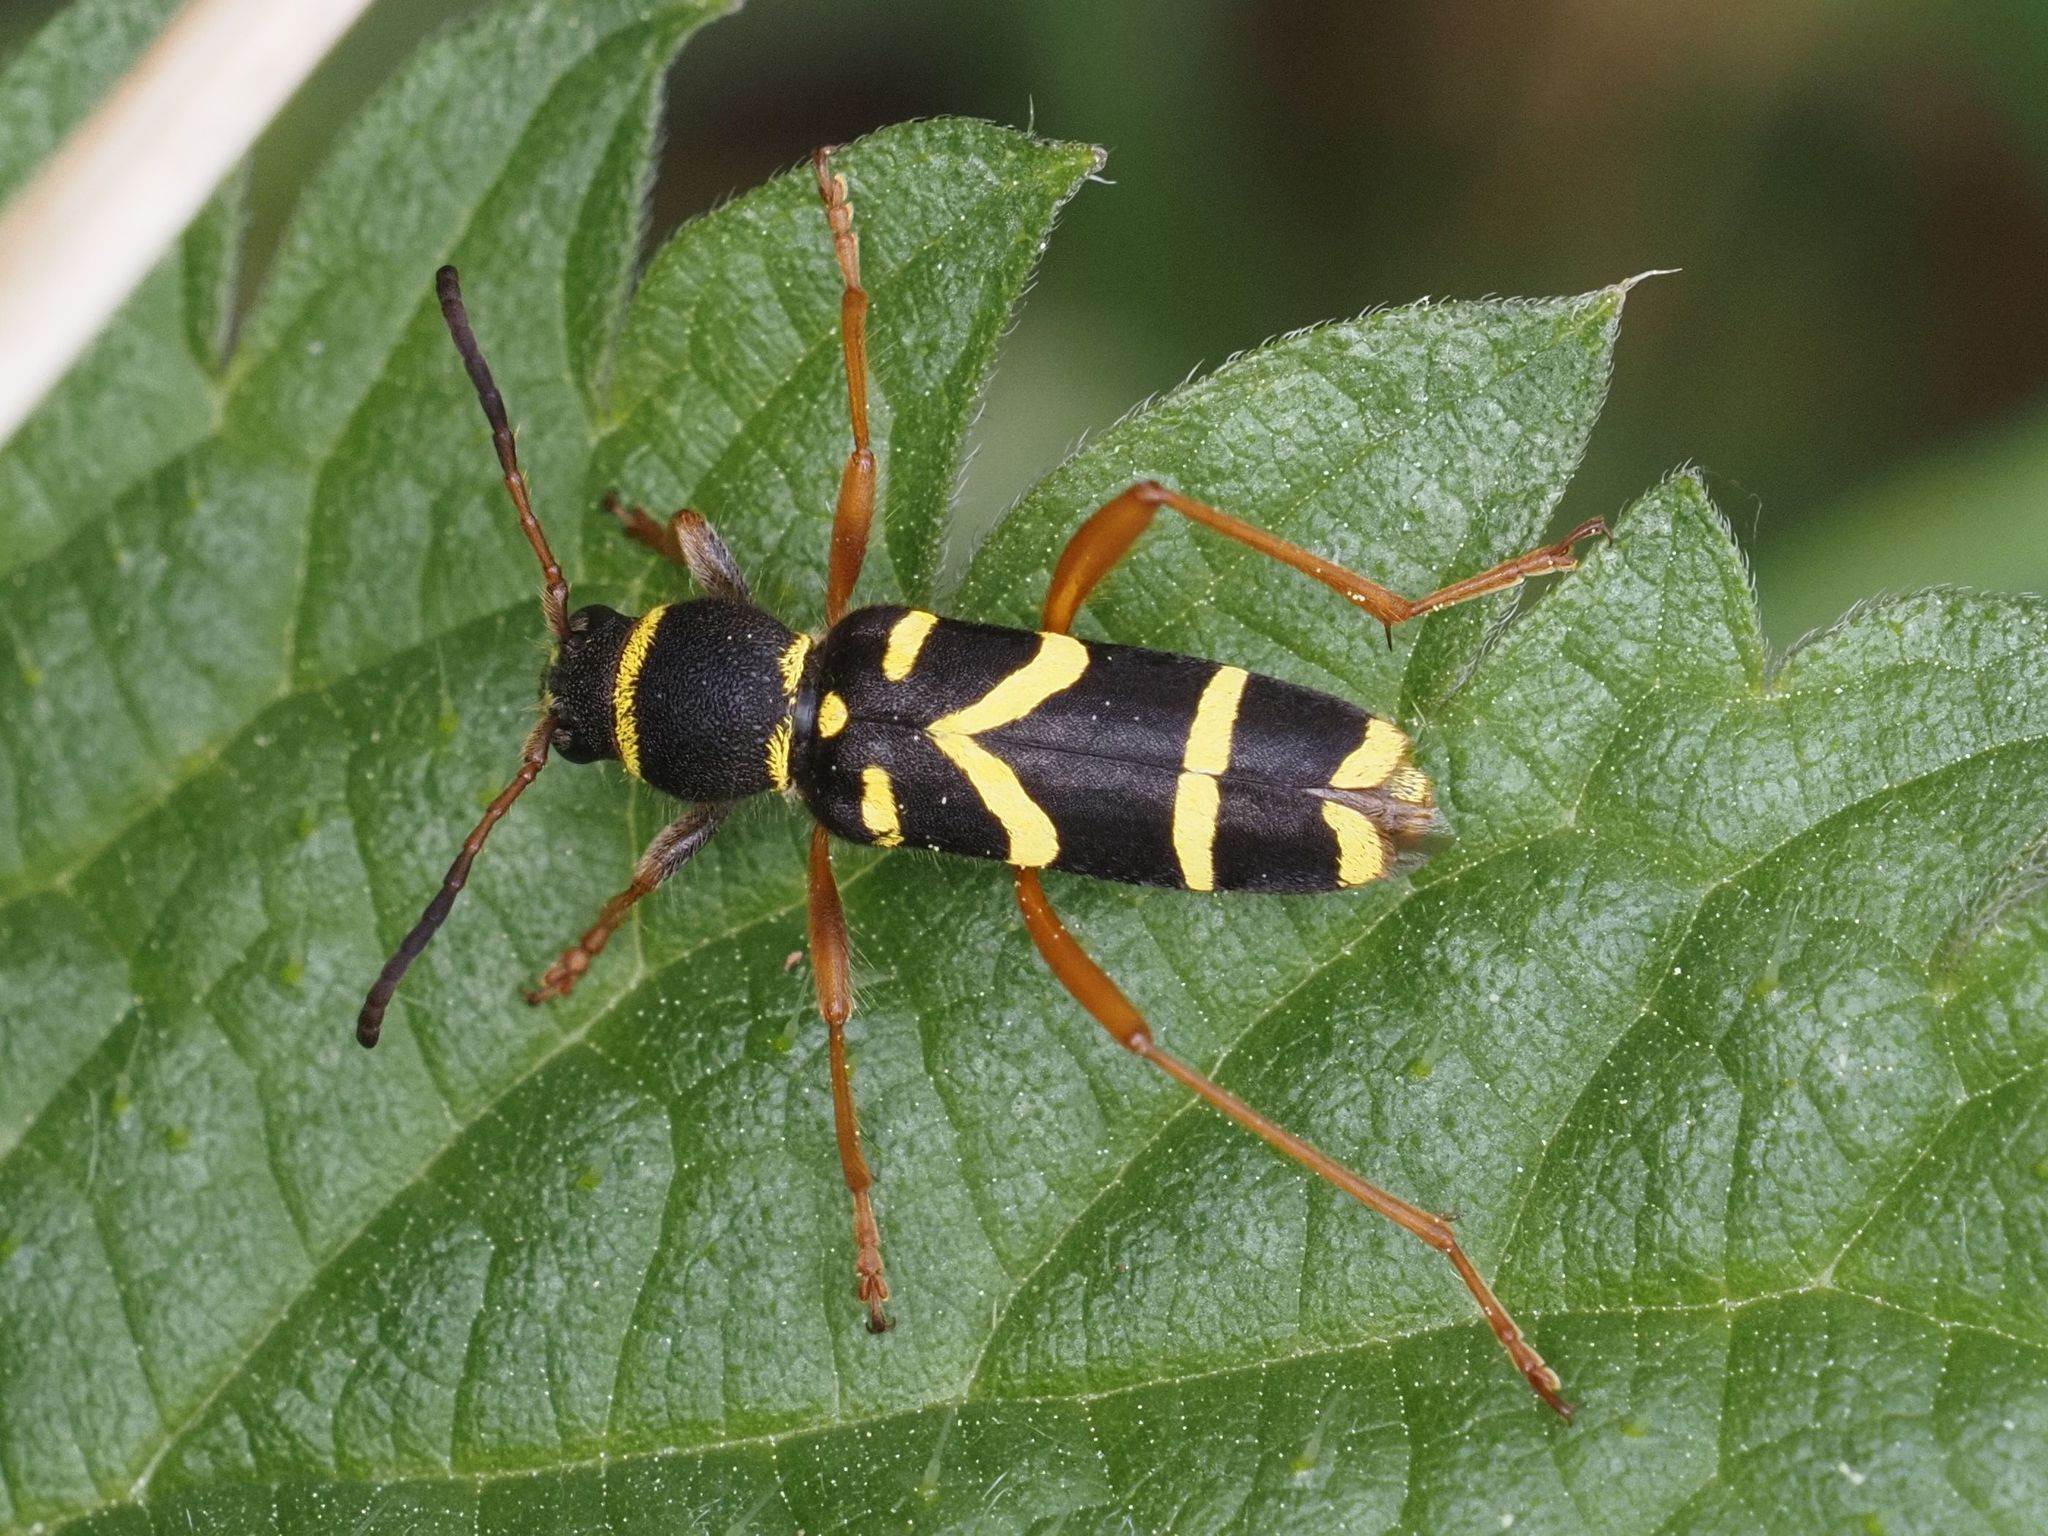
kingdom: Animalia
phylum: Arthropoda
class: Insecta
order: Coleoptera
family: Cerambycidae
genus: Clytus
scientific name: Clytus arietis
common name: Wasp beetle
